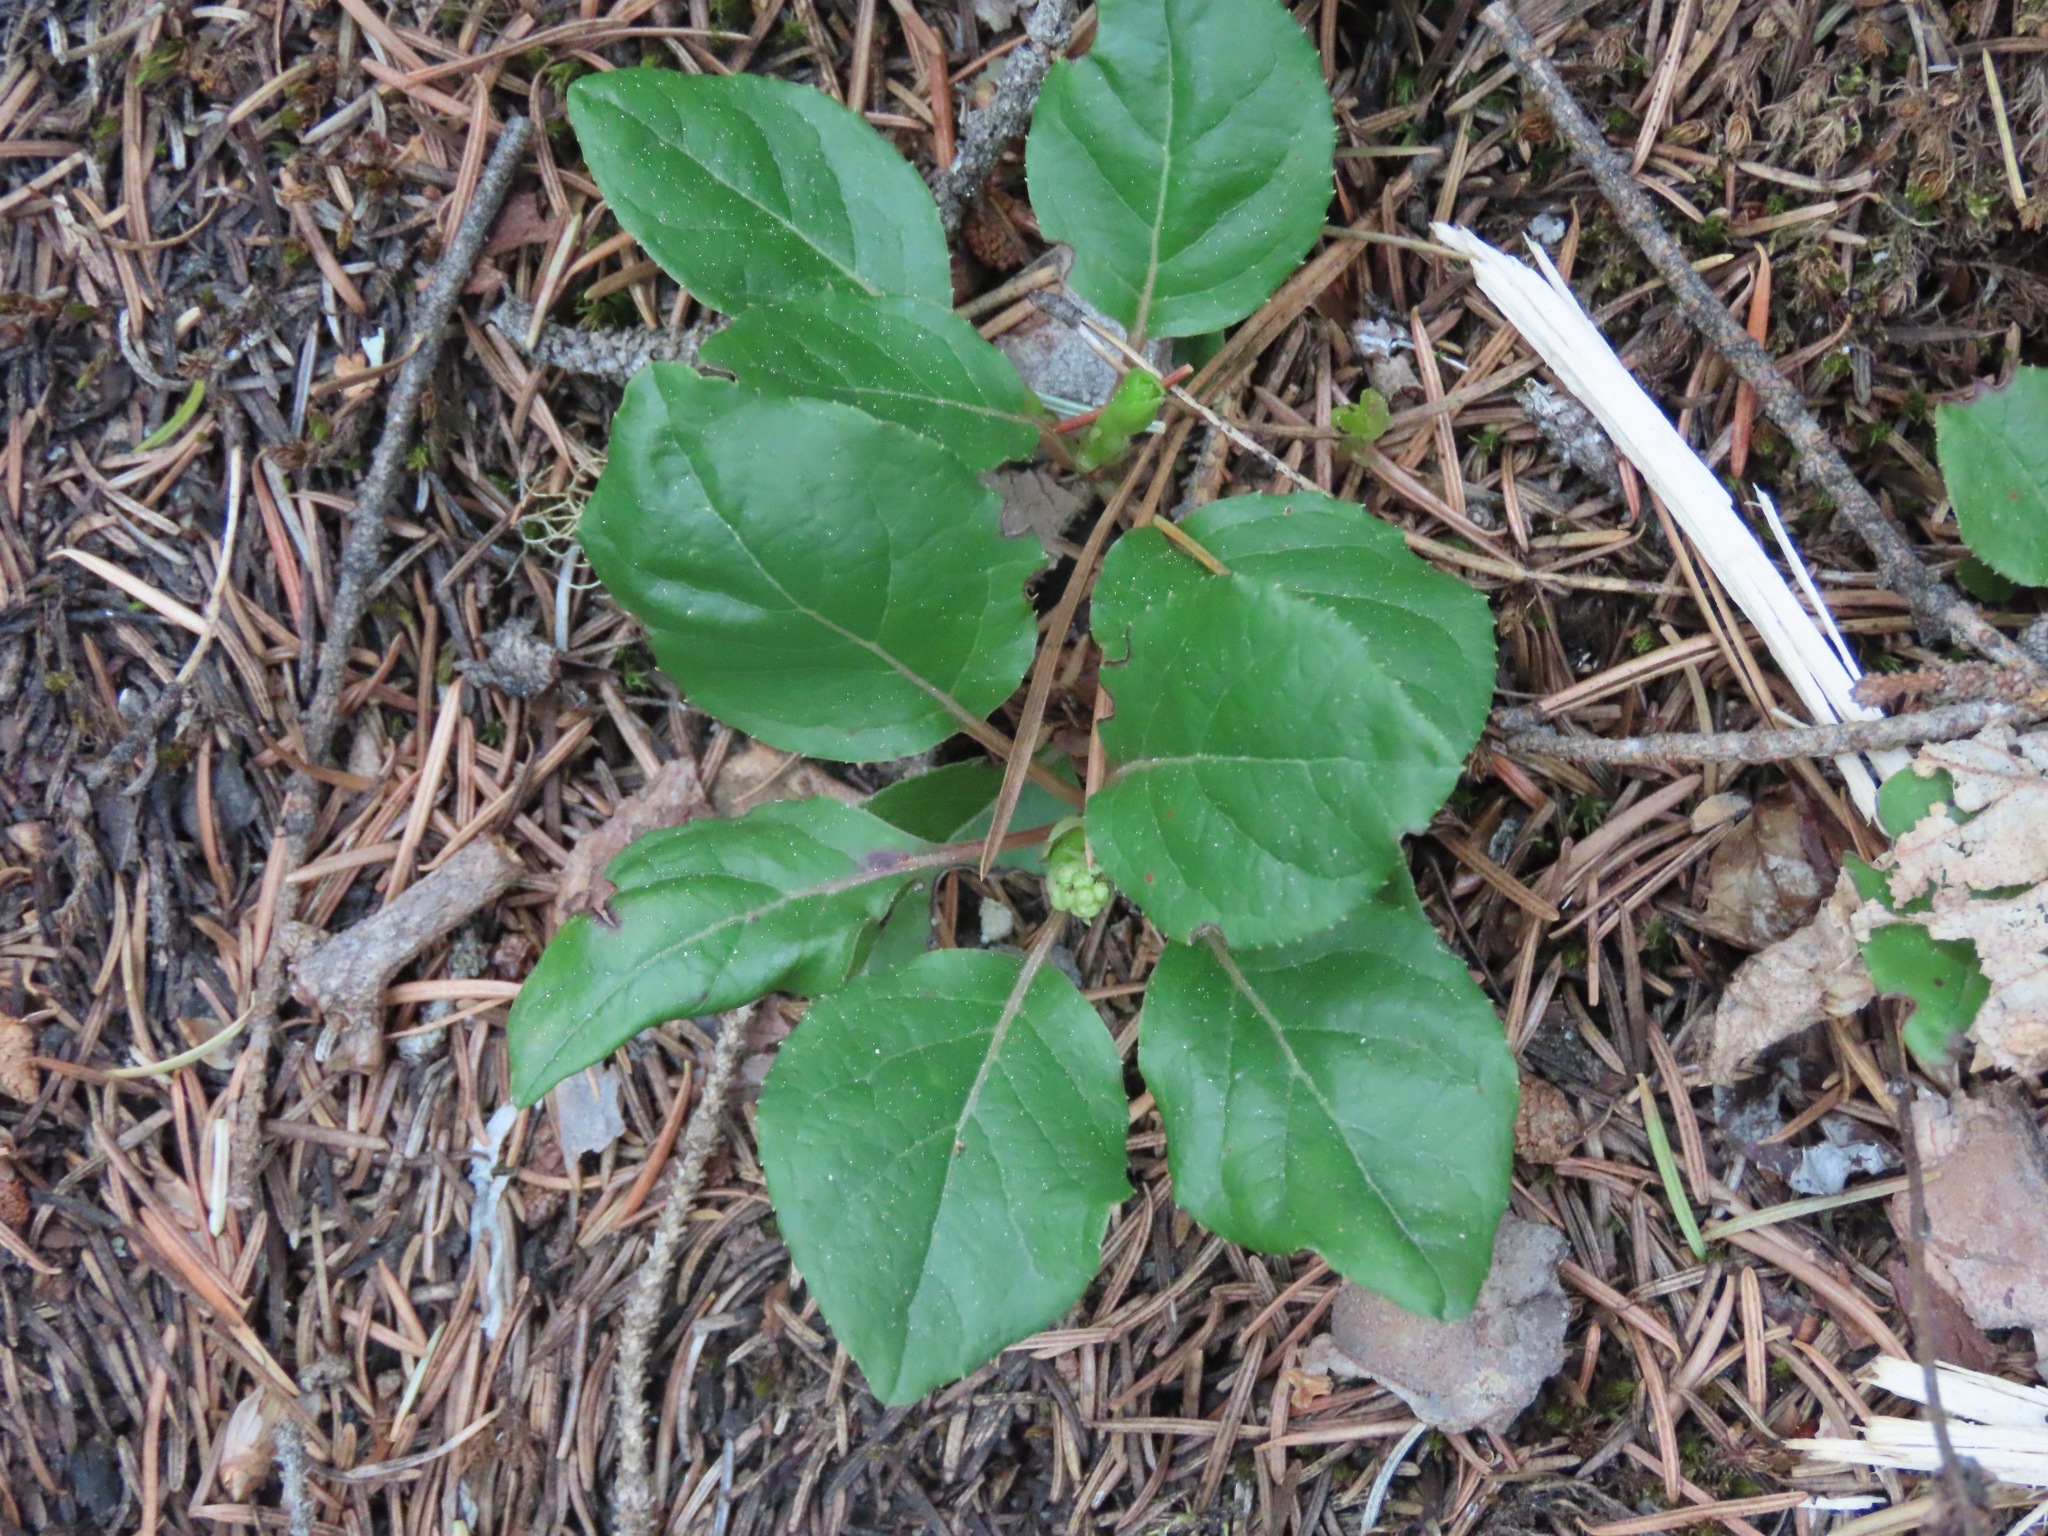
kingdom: Plantae
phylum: Tracheophyta
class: Magnoliopsida
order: Ericales
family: Ericaceae
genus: Orthilia
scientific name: Orthilia secunda
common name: One-sided orthilia
